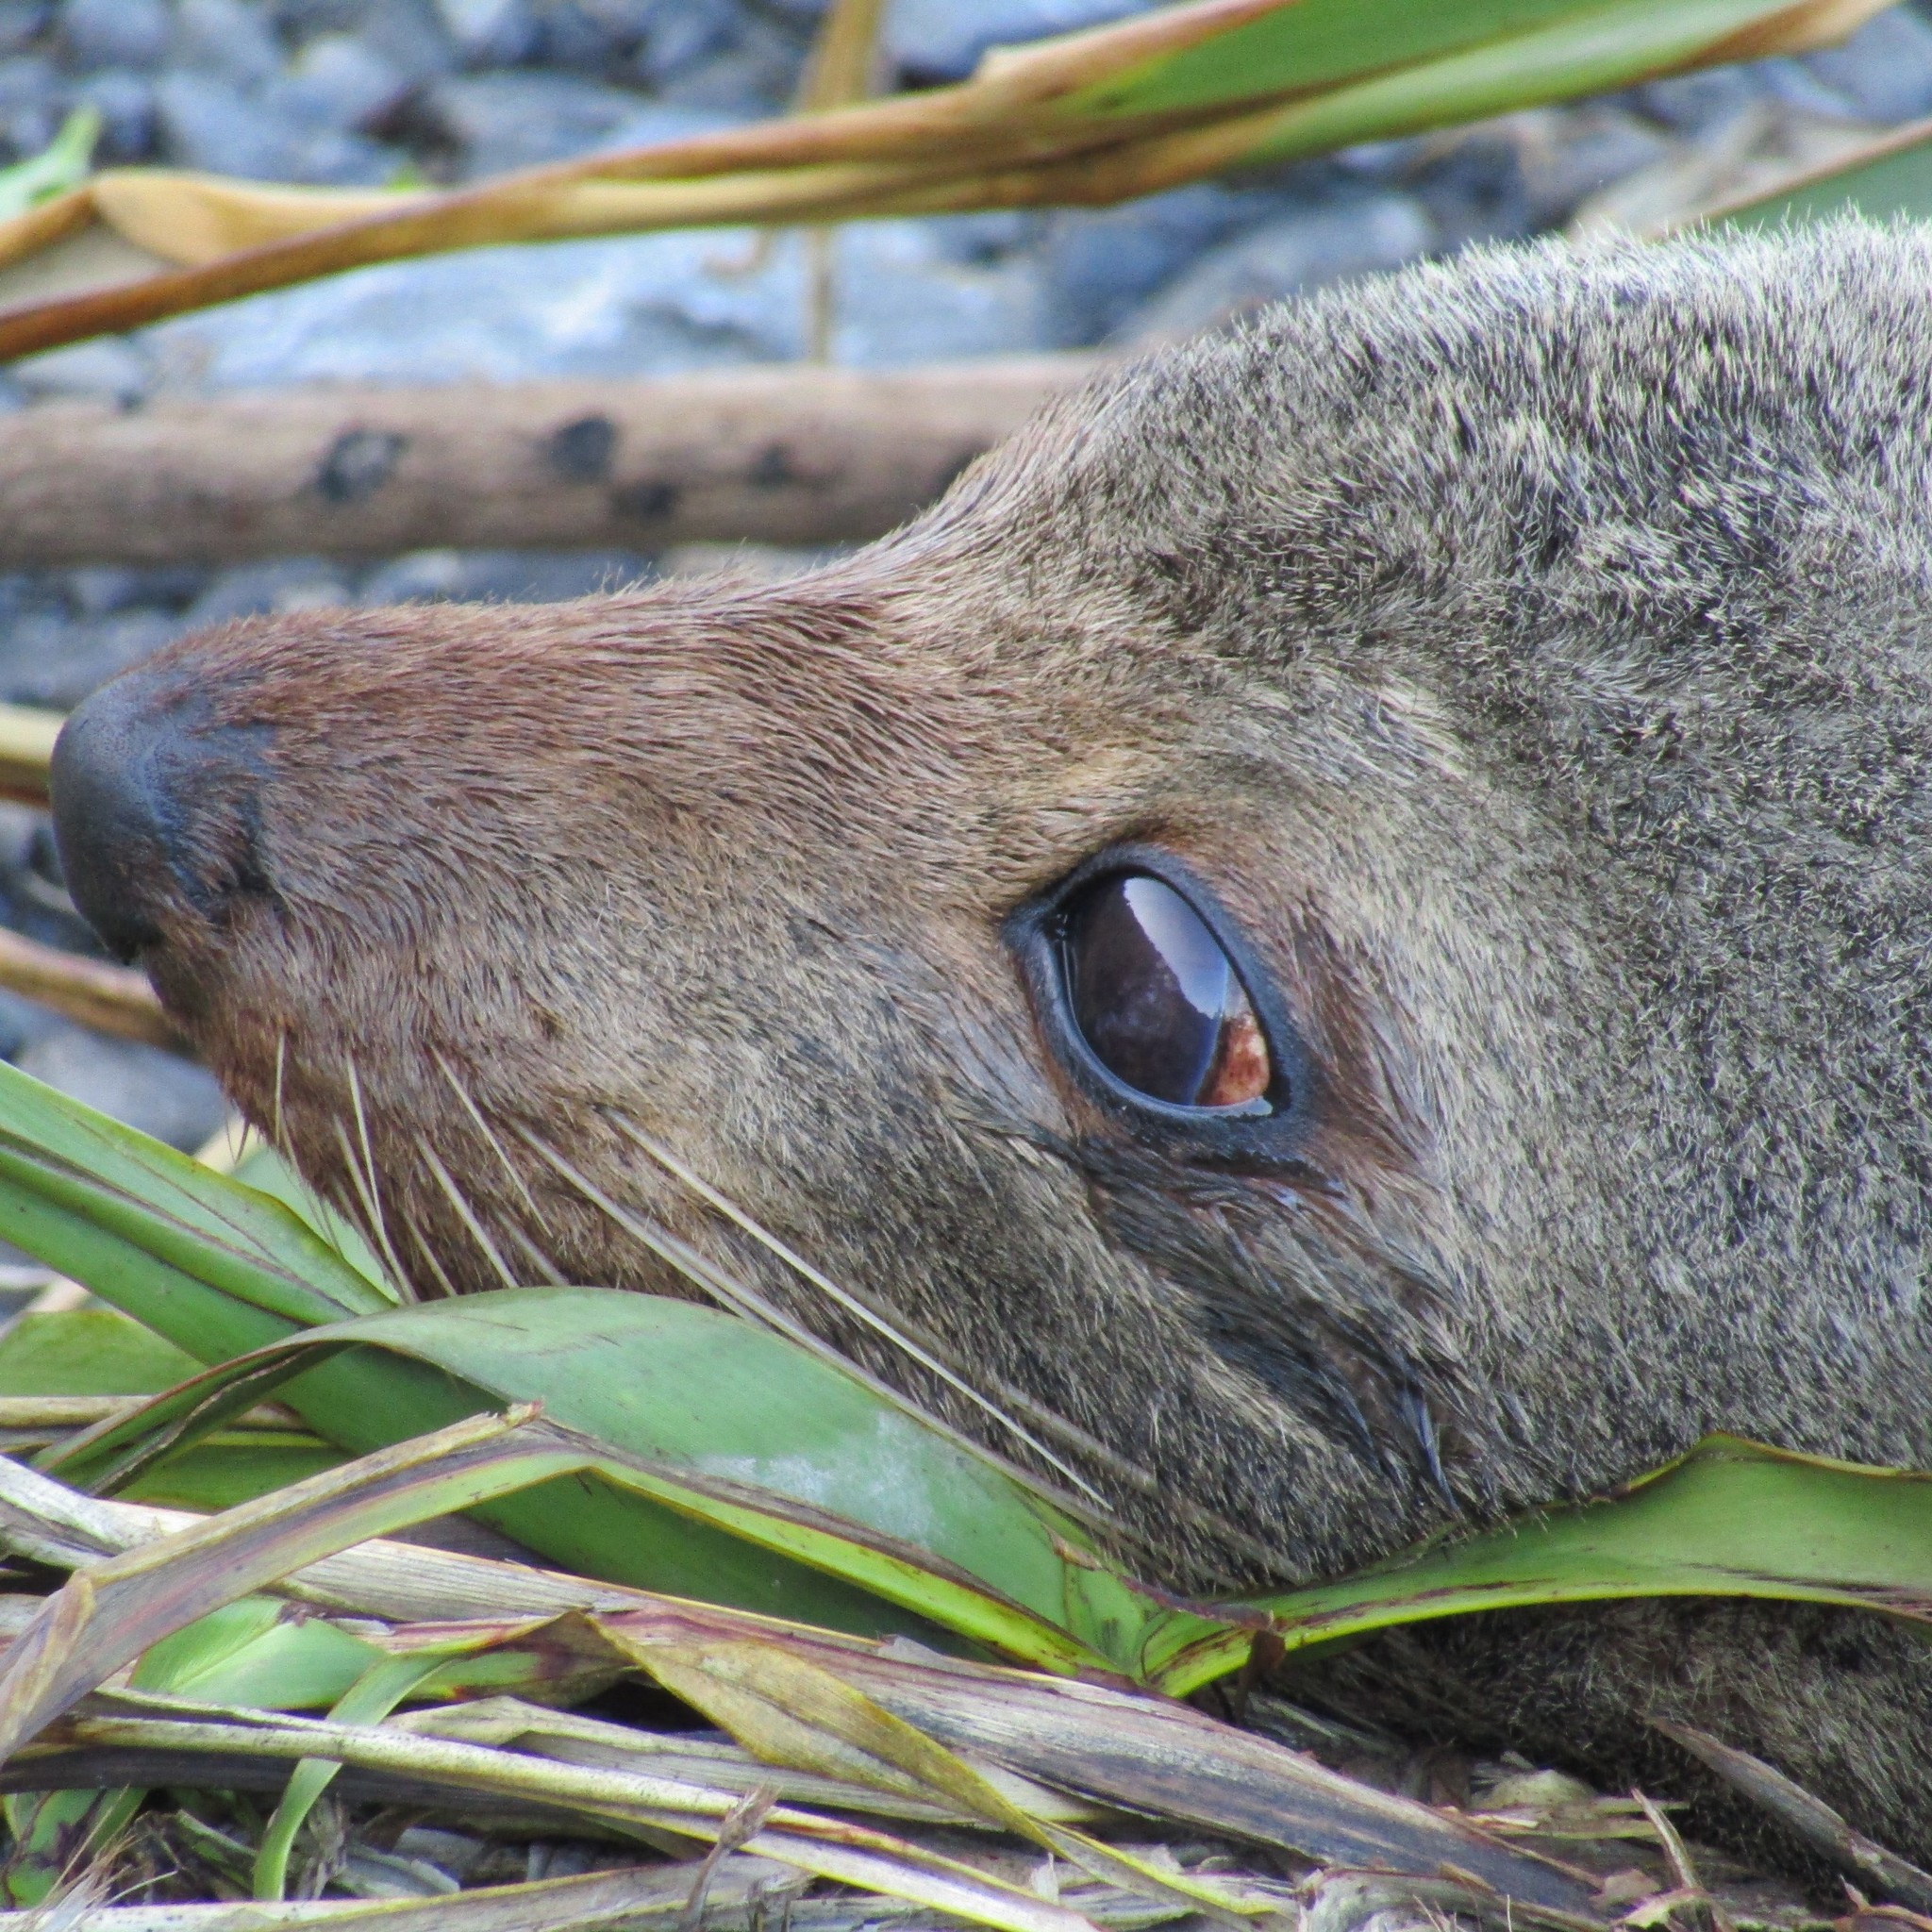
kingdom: Animalia
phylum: Chordata
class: Mammalia
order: Carnivora
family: Otariidae
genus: Arctocephalus
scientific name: Arctocephalus forsteri
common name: New zealand fur seal
